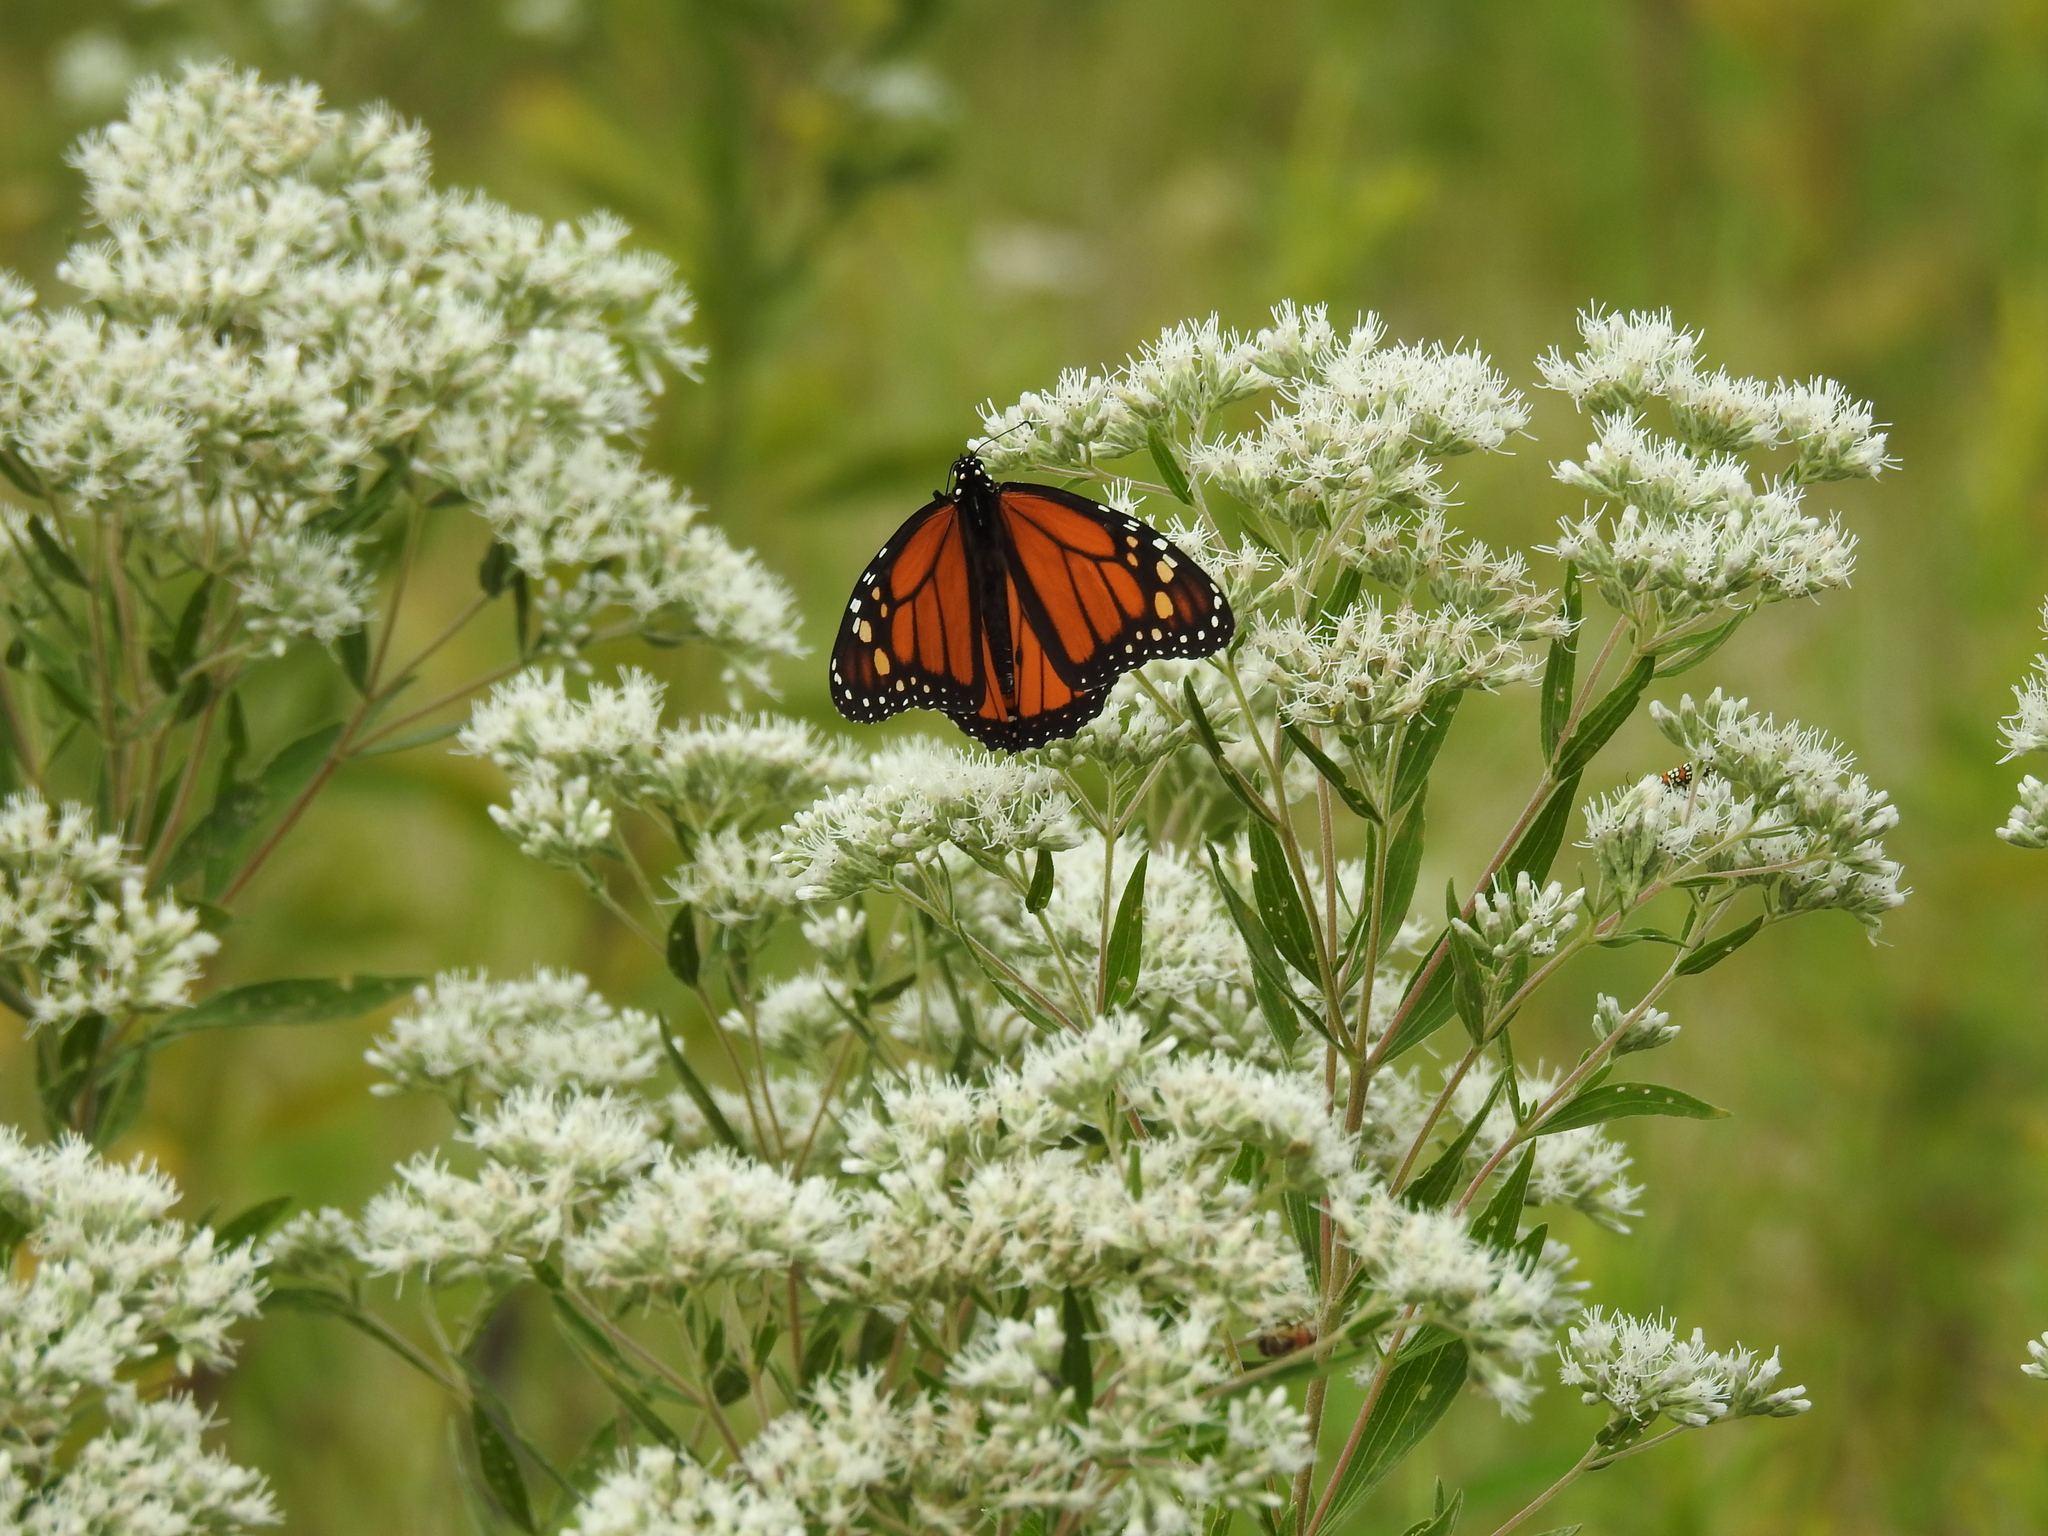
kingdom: Animalia
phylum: Arthropoda
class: Insecta
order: Lepidoptera
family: Nymphalidae
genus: Danaus
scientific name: Danaus plexippus
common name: Monarch
